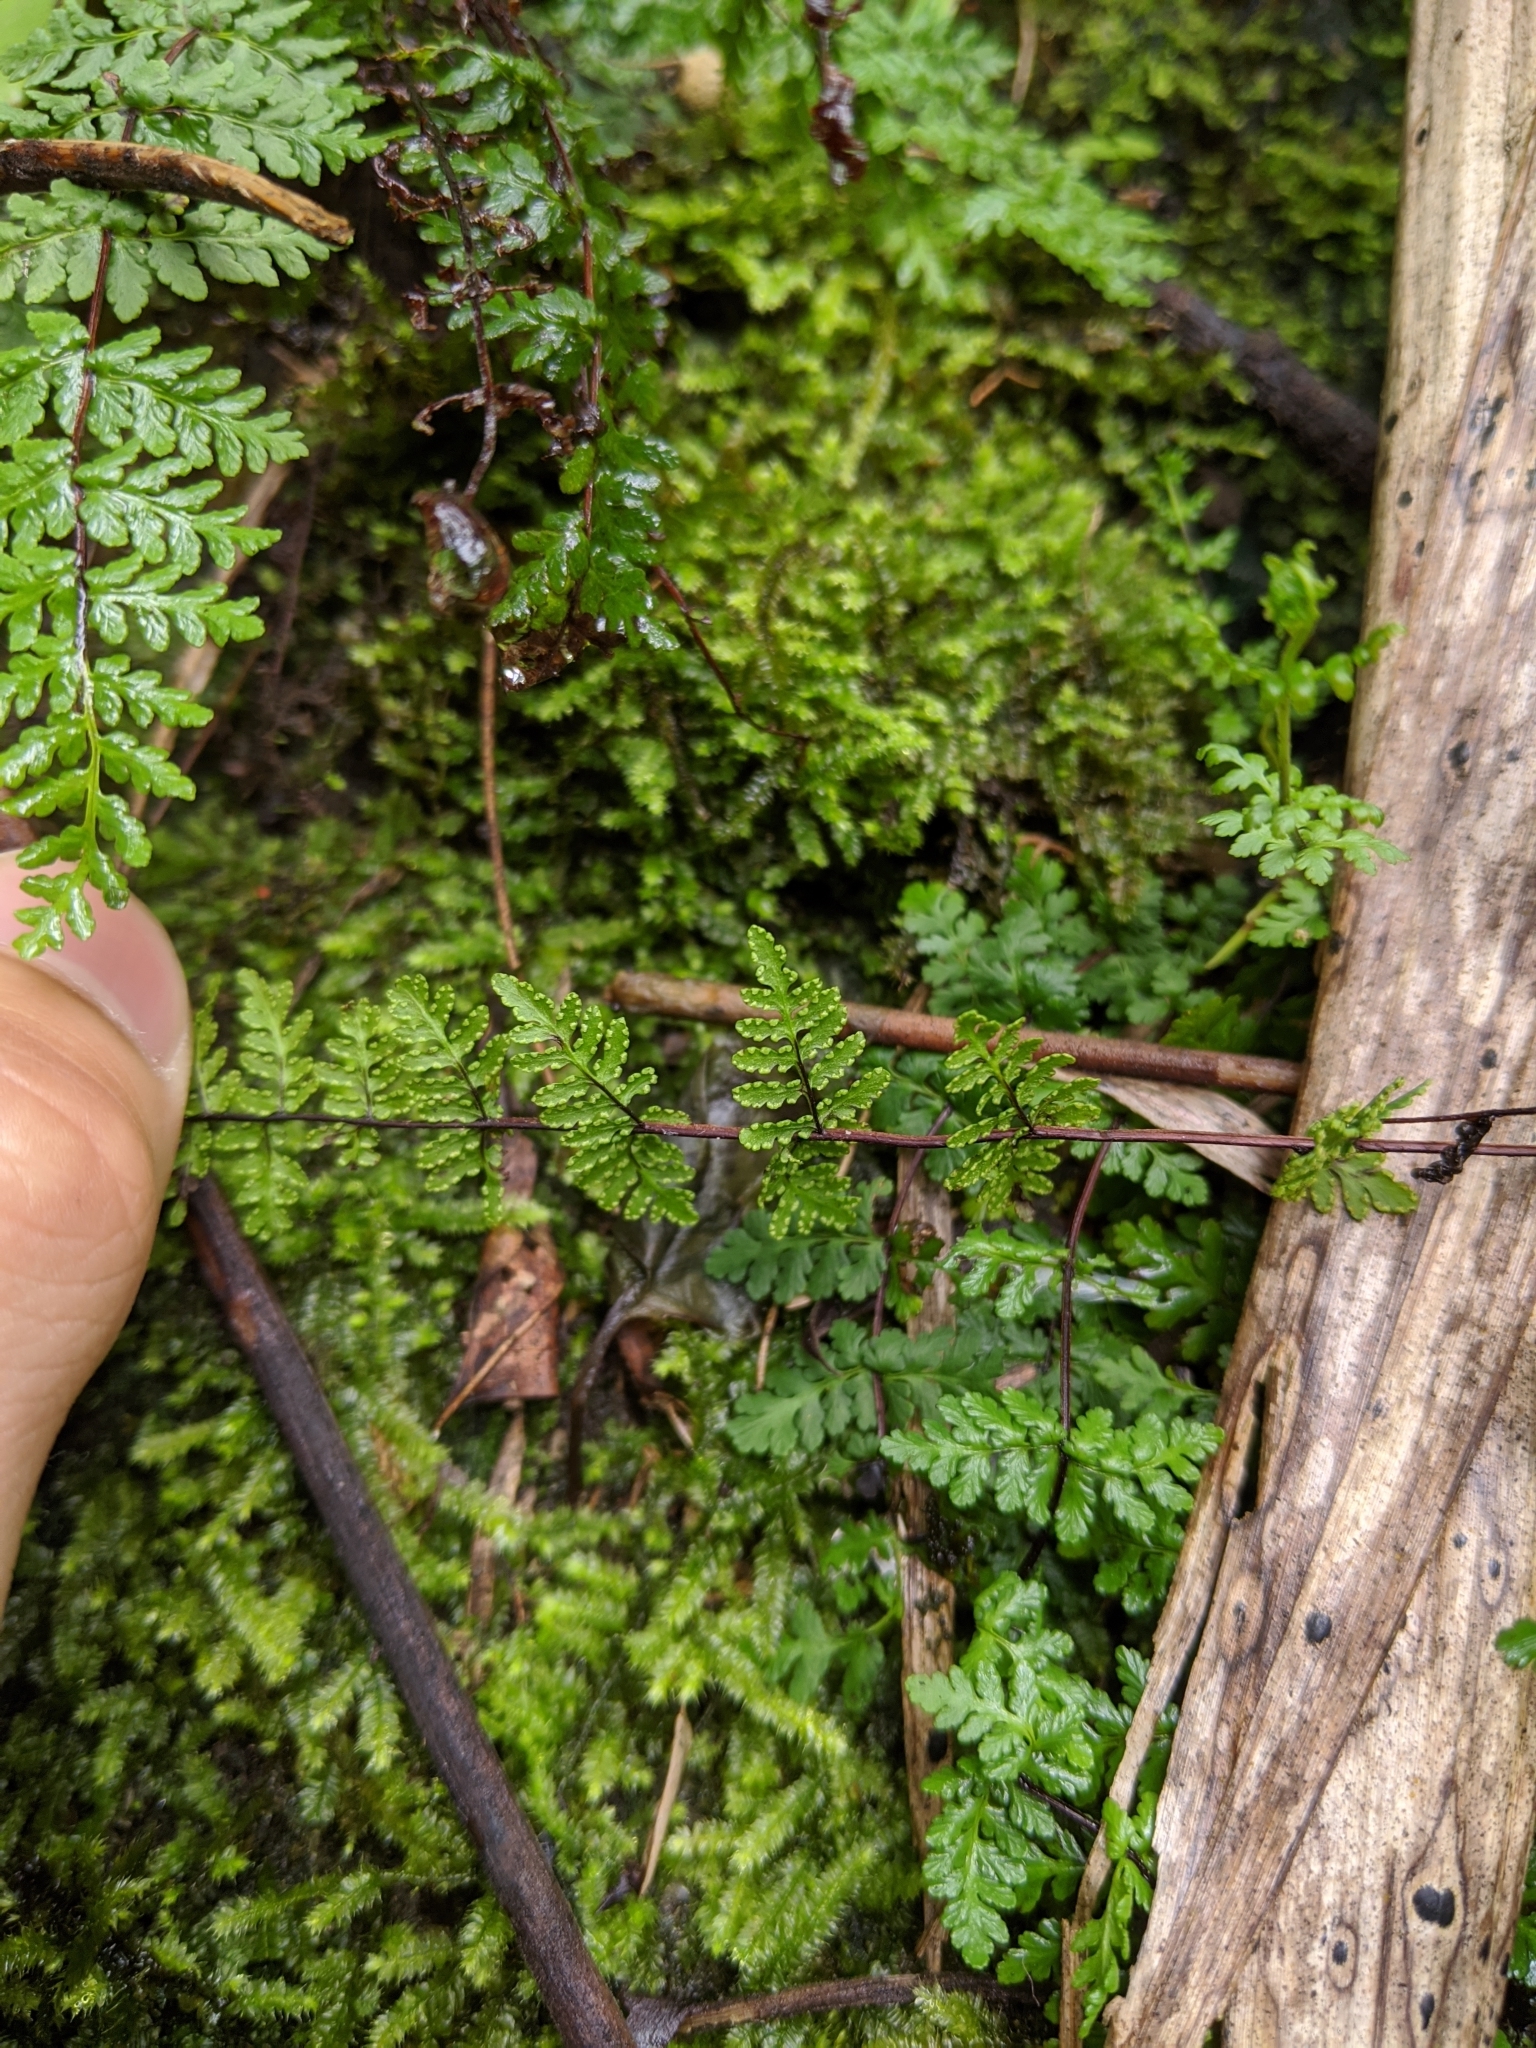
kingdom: Plantae
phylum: Tracheophyta
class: Polypodiopsida
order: Polypodiales
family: Pteridaceae
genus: Oeosporangium
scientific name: Oeosporangium chusanum
